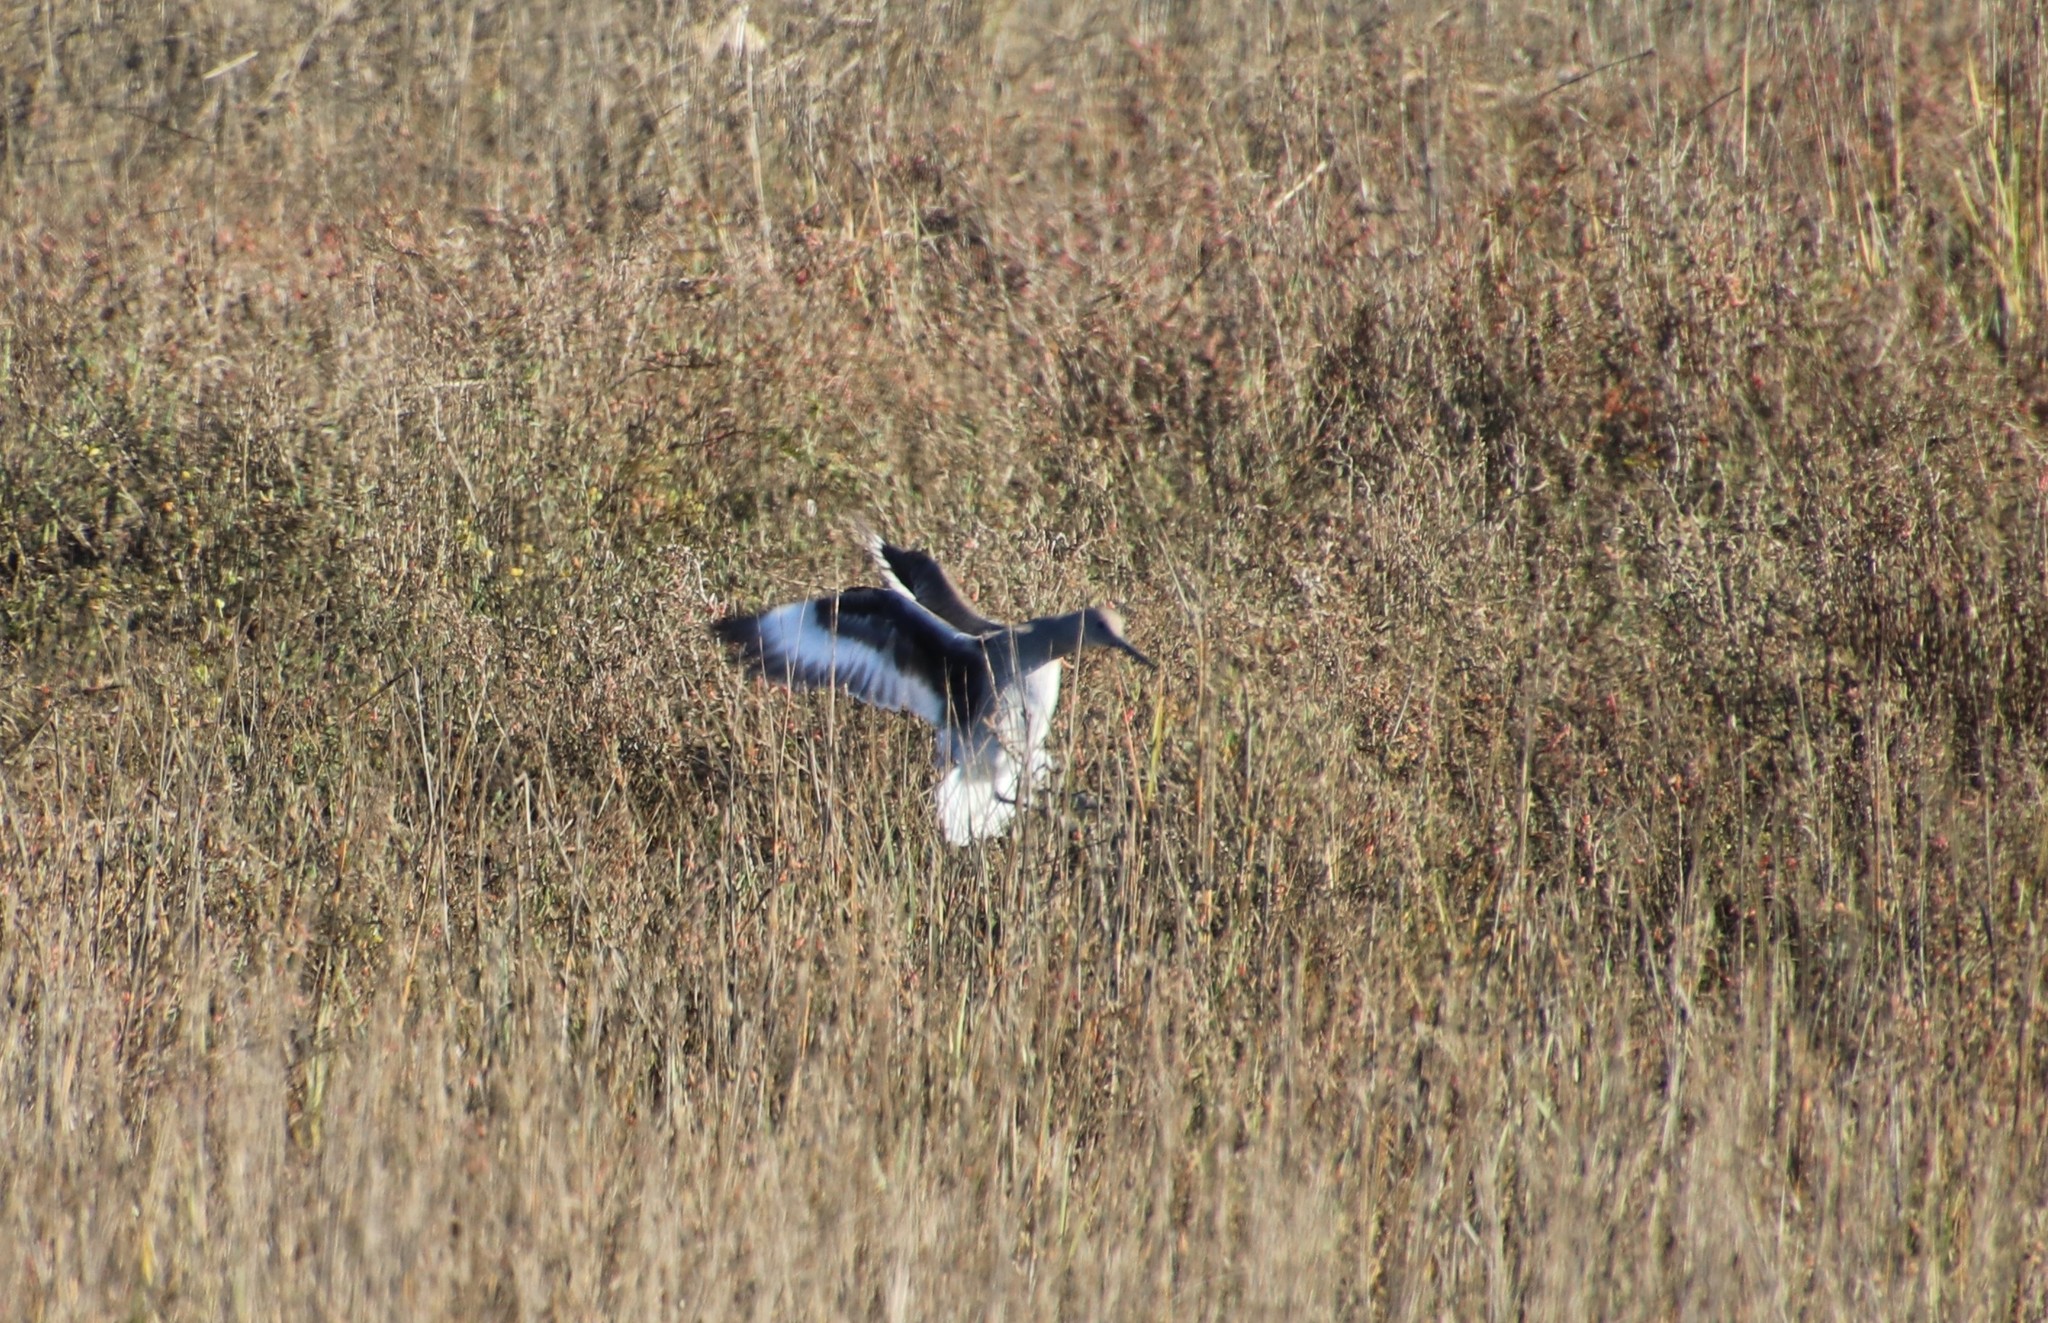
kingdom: Animalia
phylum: Chordata
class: Aves
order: Charadriiformes
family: Scolopacidae
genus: Tringa
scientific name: Tringa semipalmata
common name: Willet
